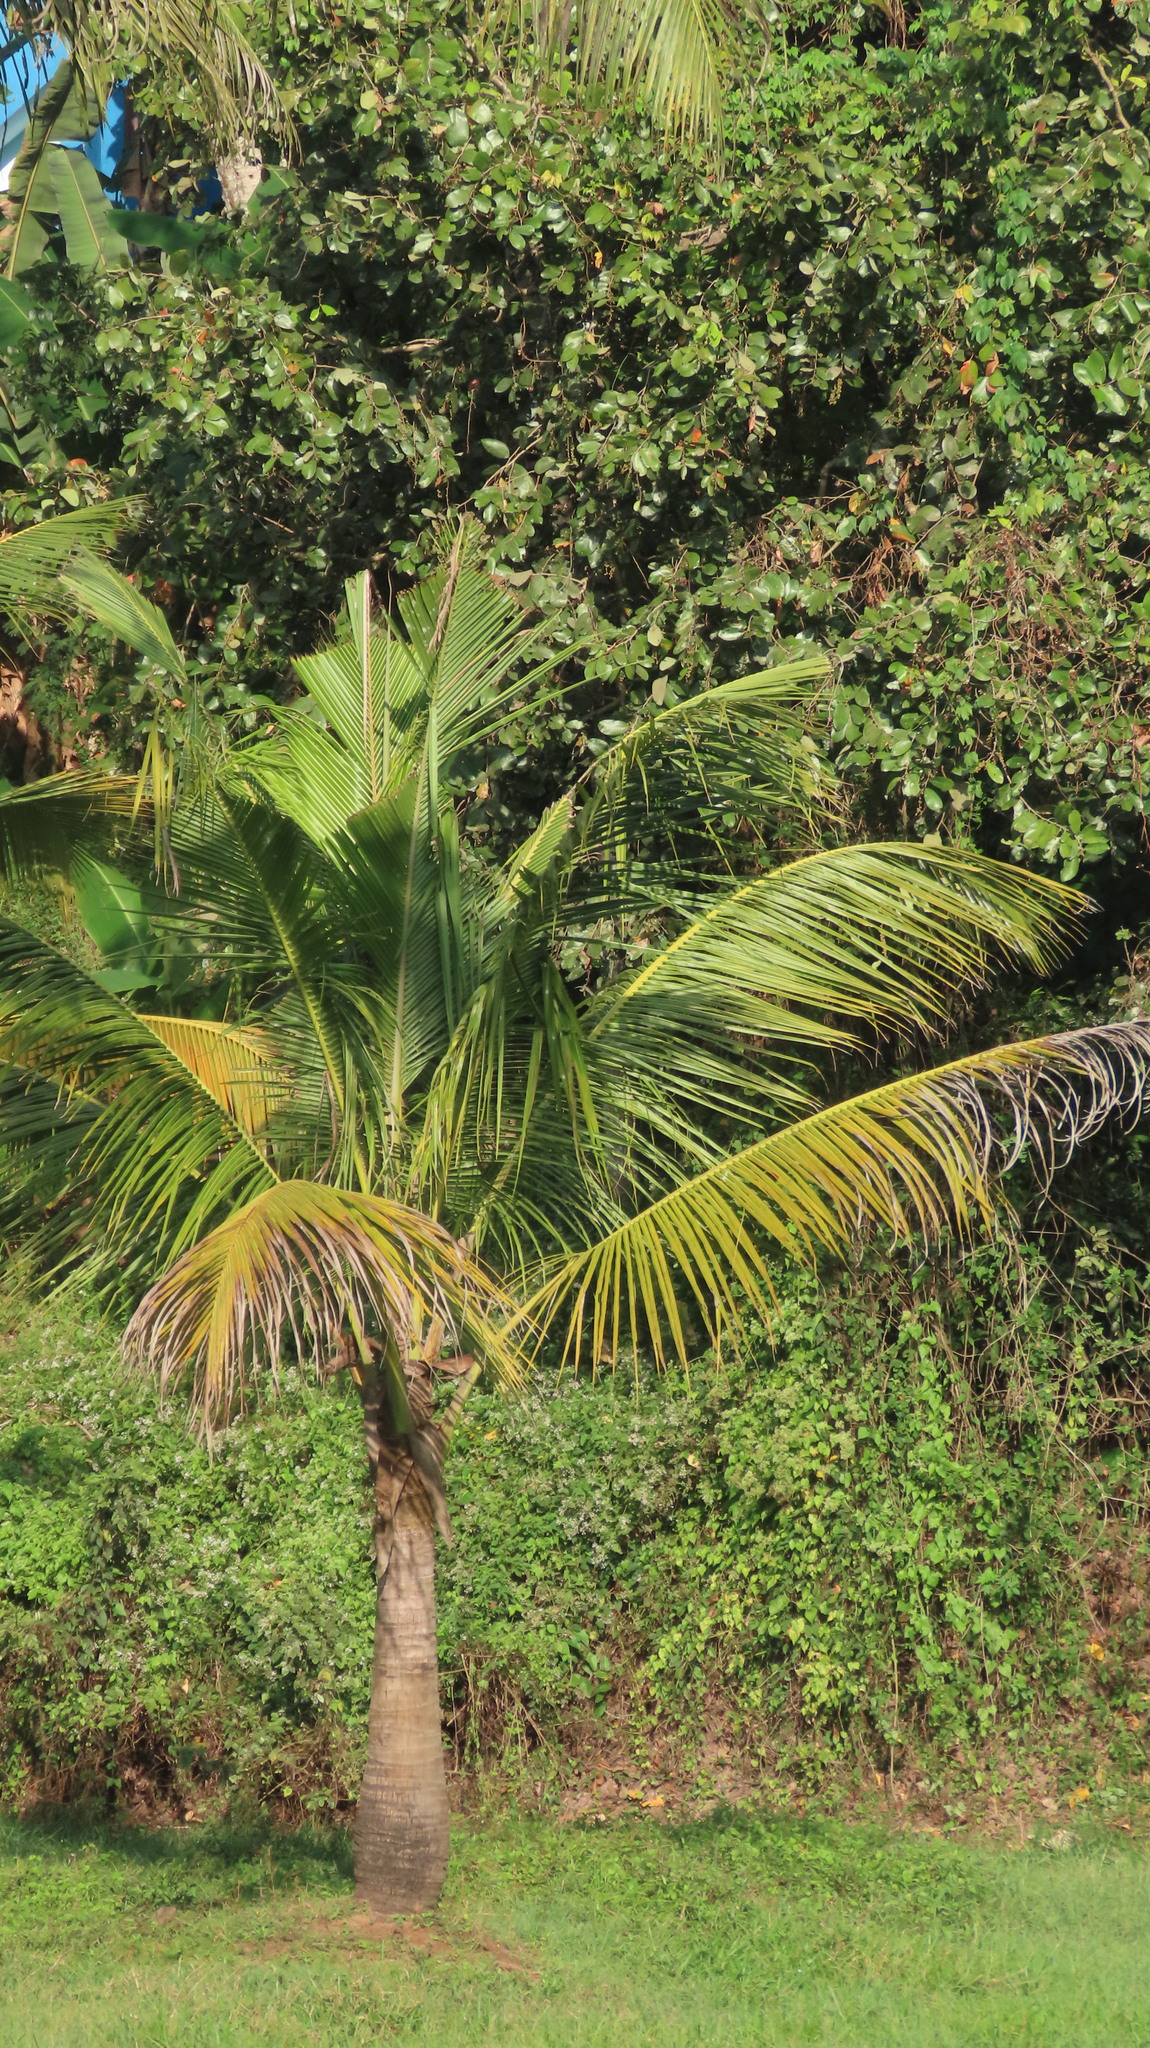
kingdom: Plantae
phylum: Tracheophyta
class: Liliopsida
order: Arecales
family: Arecaceae
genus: Cocos
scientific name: Cocos nucifera
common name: Coconut palm
